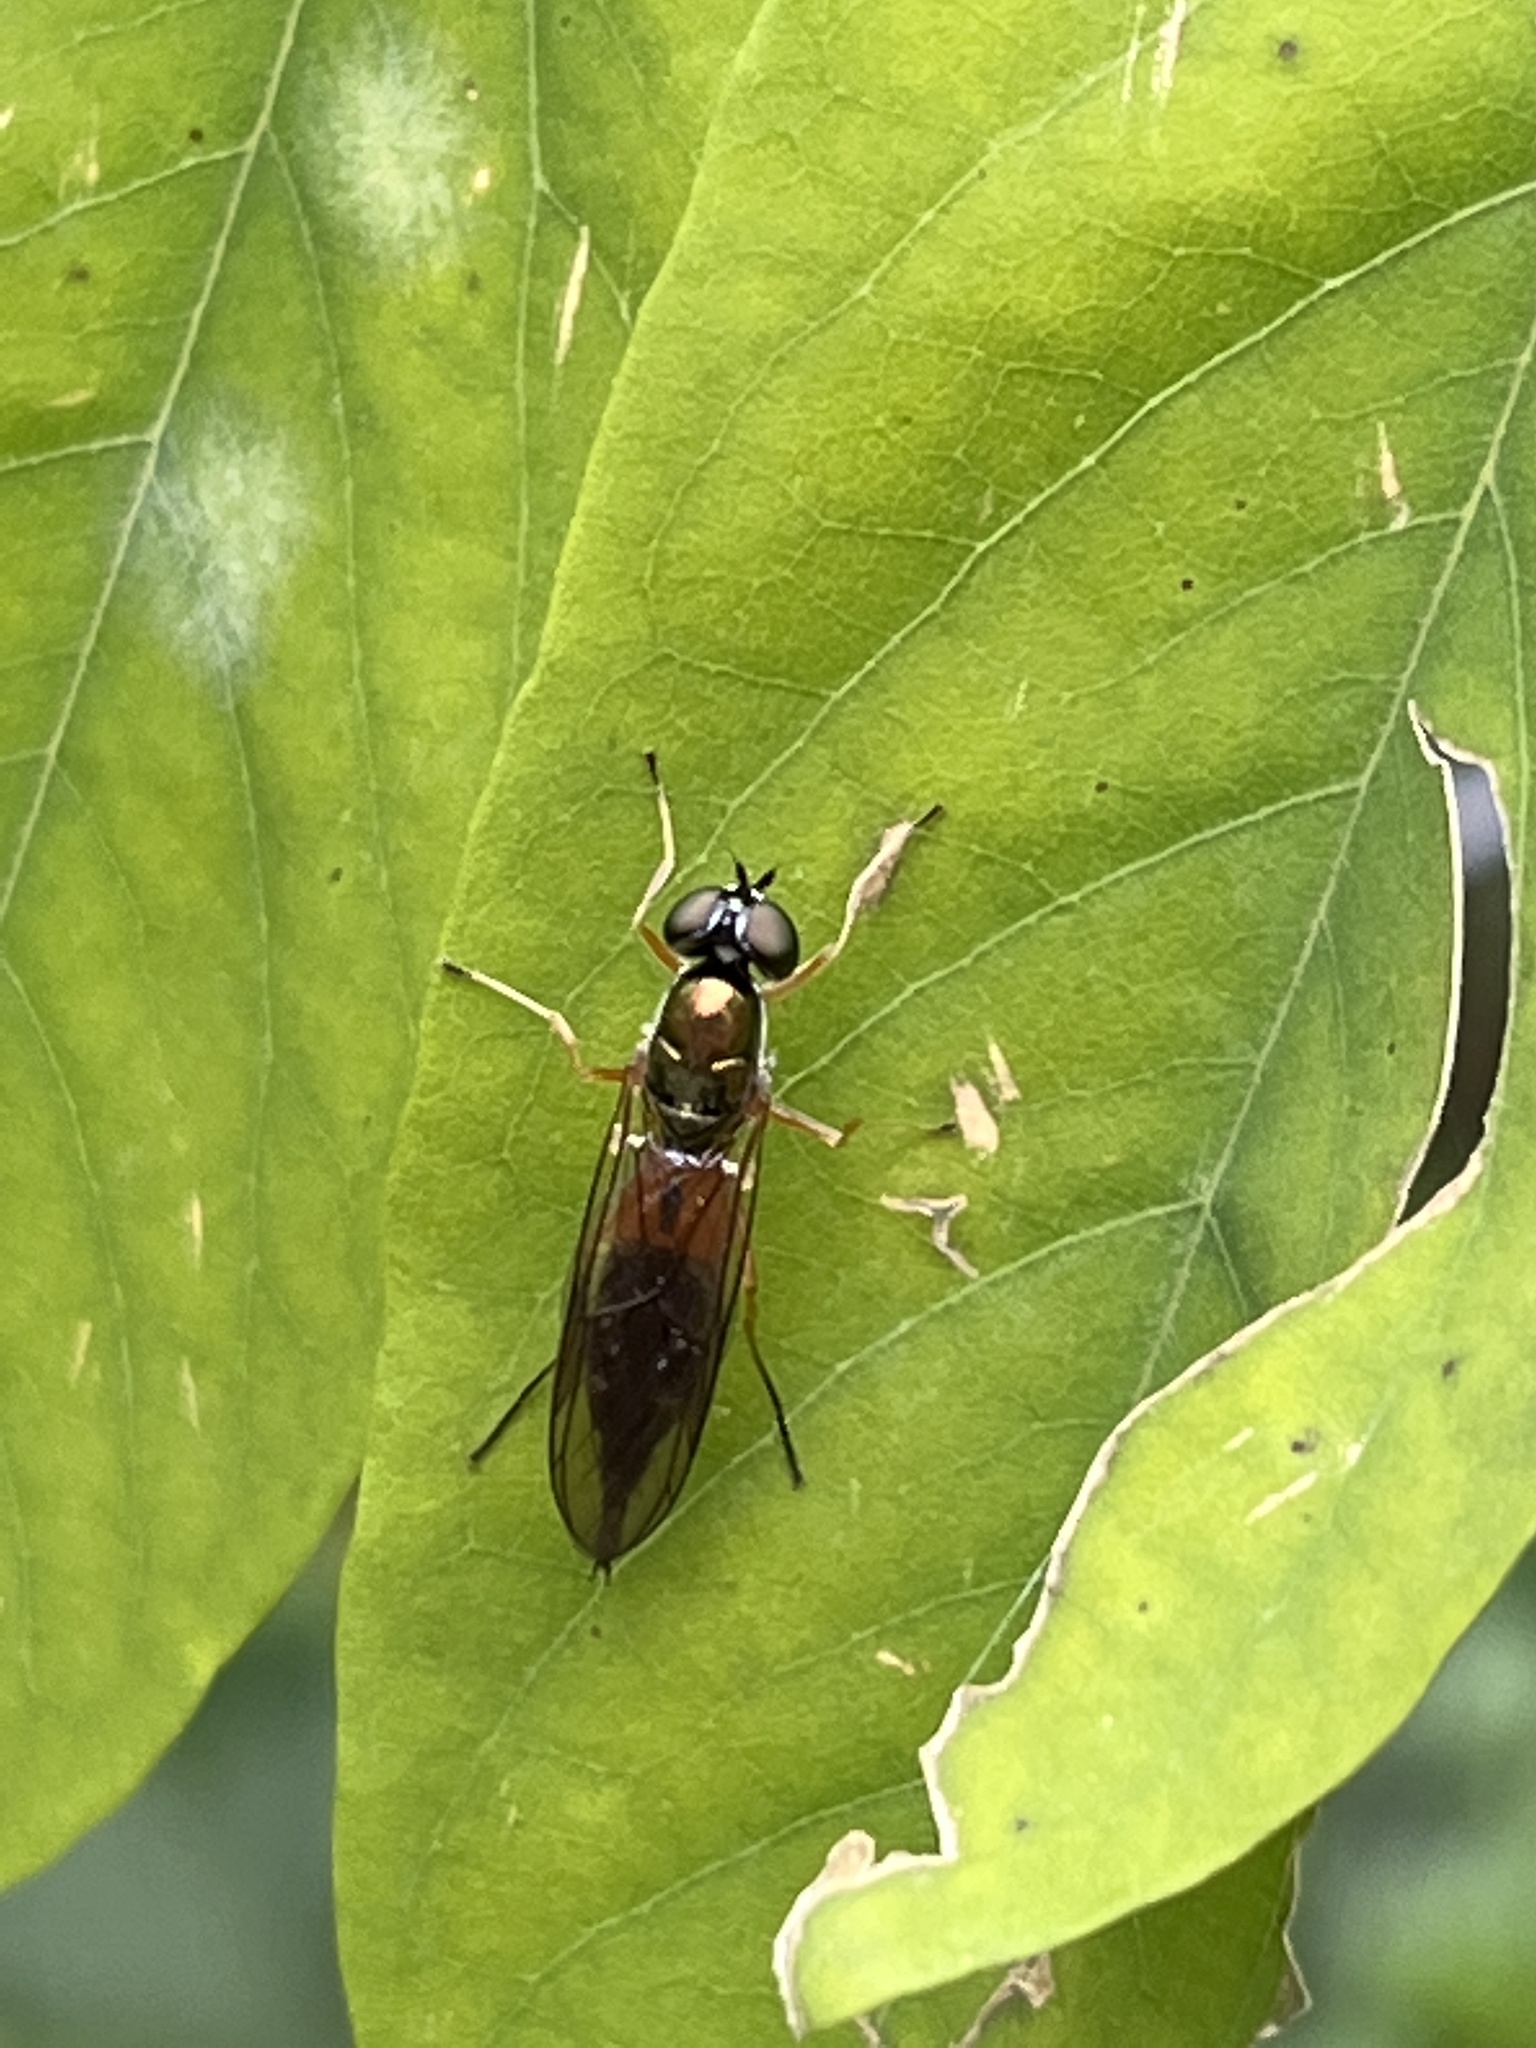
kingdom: Animalia
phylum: Arthropoda
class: Insecta
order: Diptera
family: Stratiomyidae
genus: Sargus
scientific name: Sargus bipunctatus
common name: Twin-spot centurion
